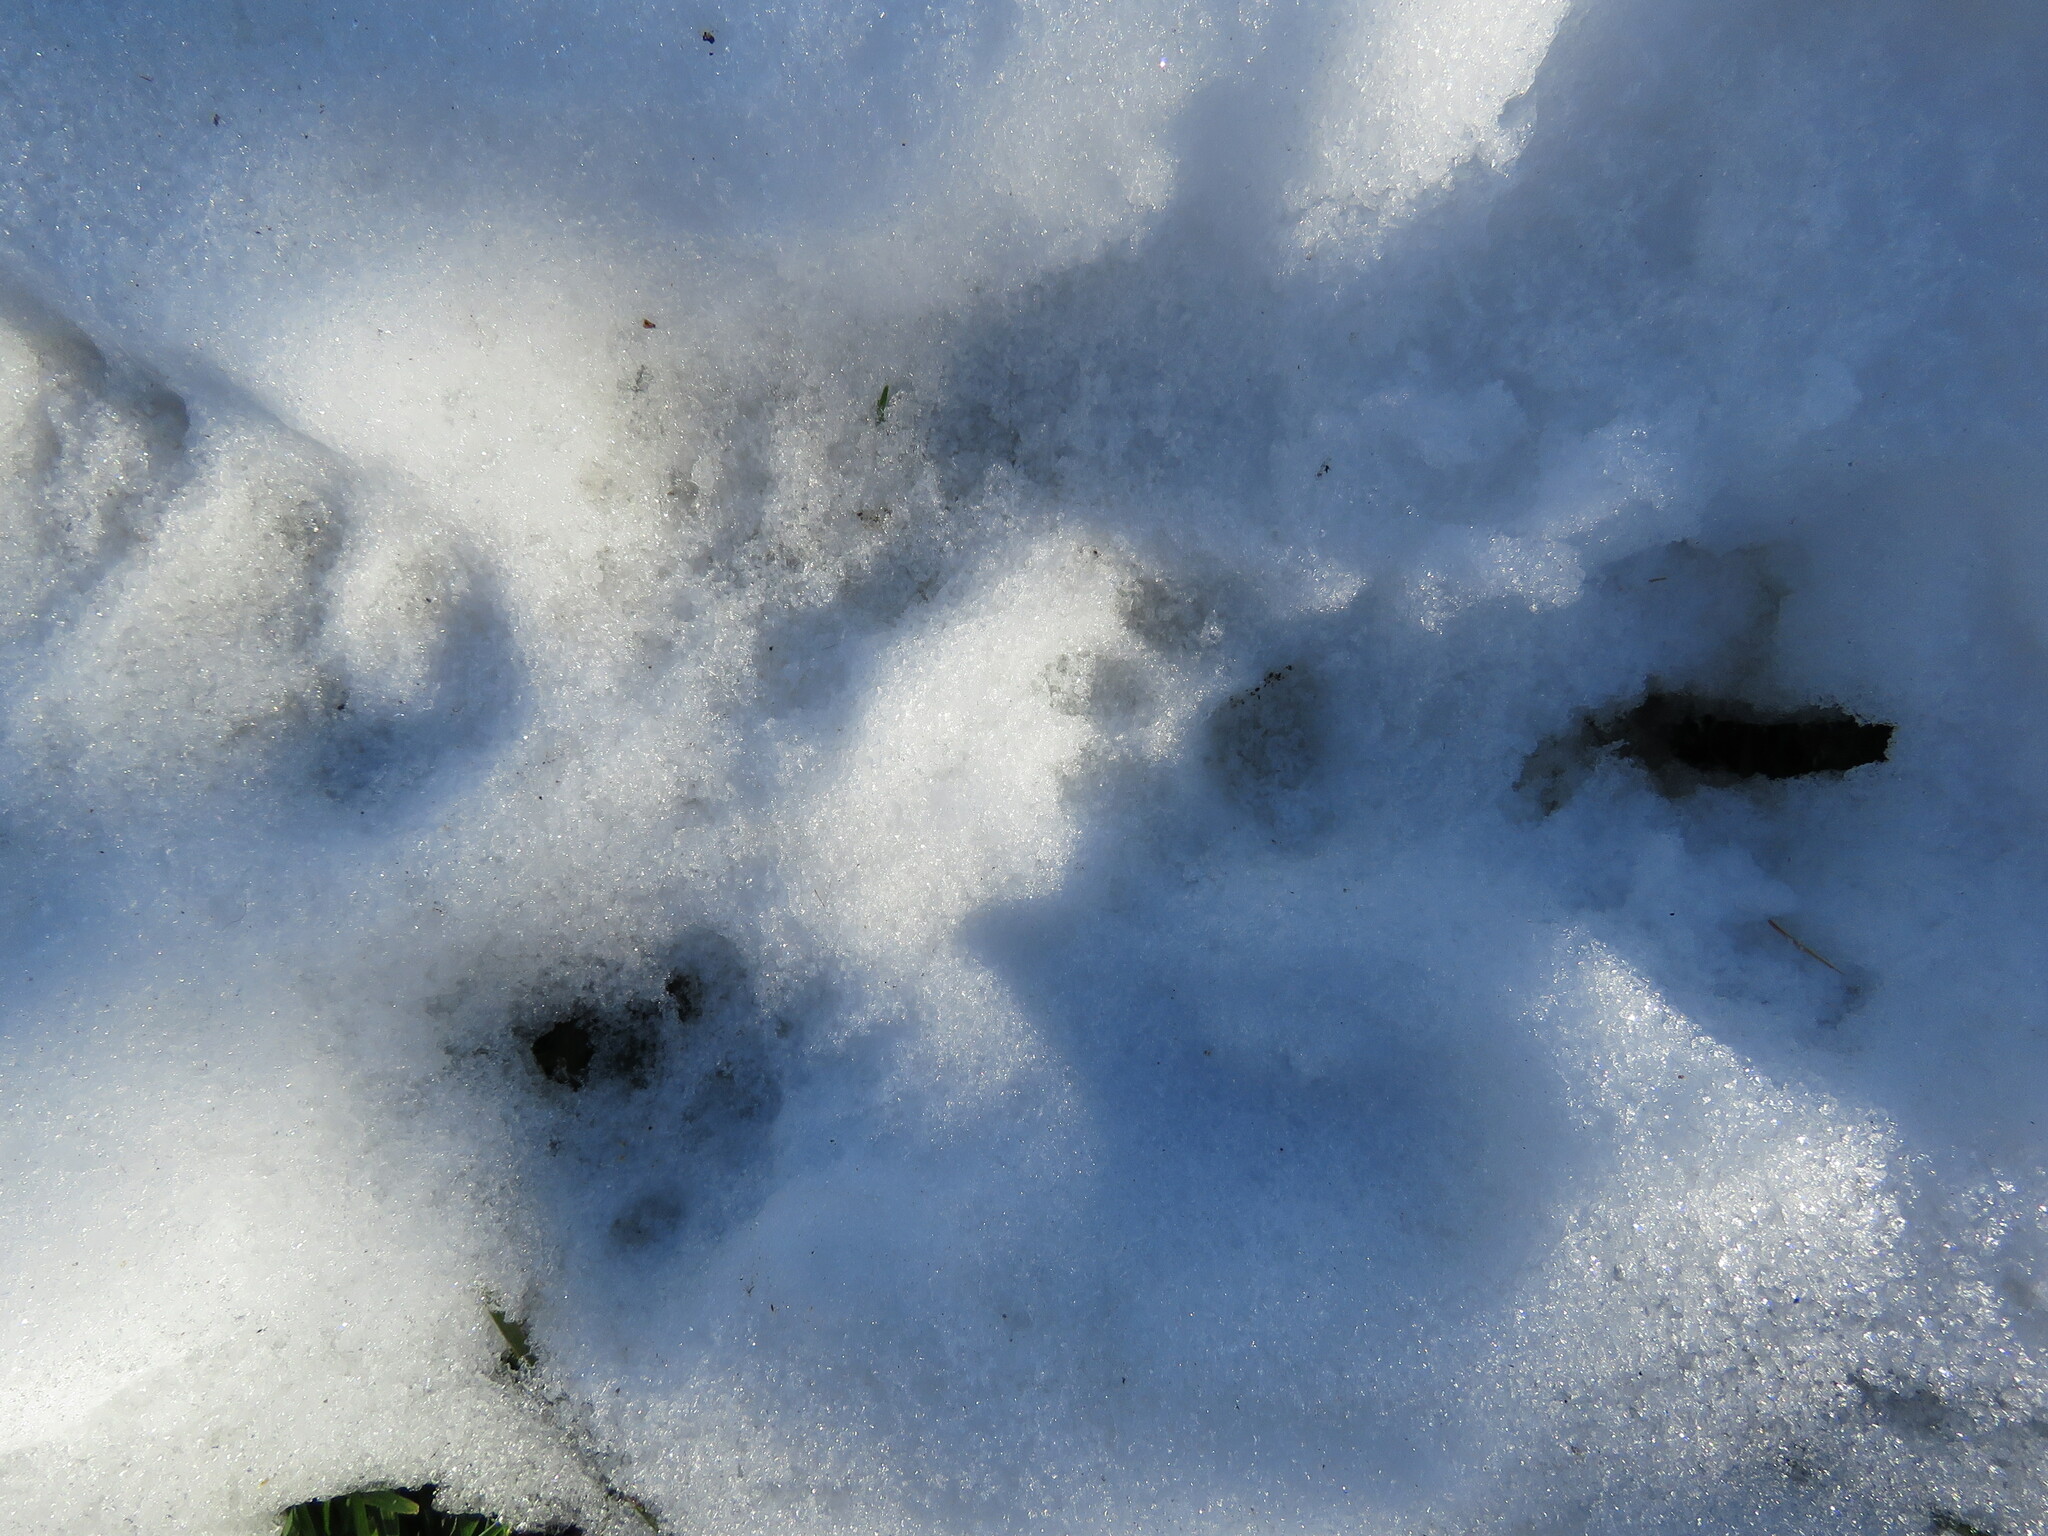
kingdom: Animalia
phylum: Chordata
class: Mammalia
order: Carnivora
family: Felidae
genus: Felis
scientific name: Felis catus
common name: Domestic cat
